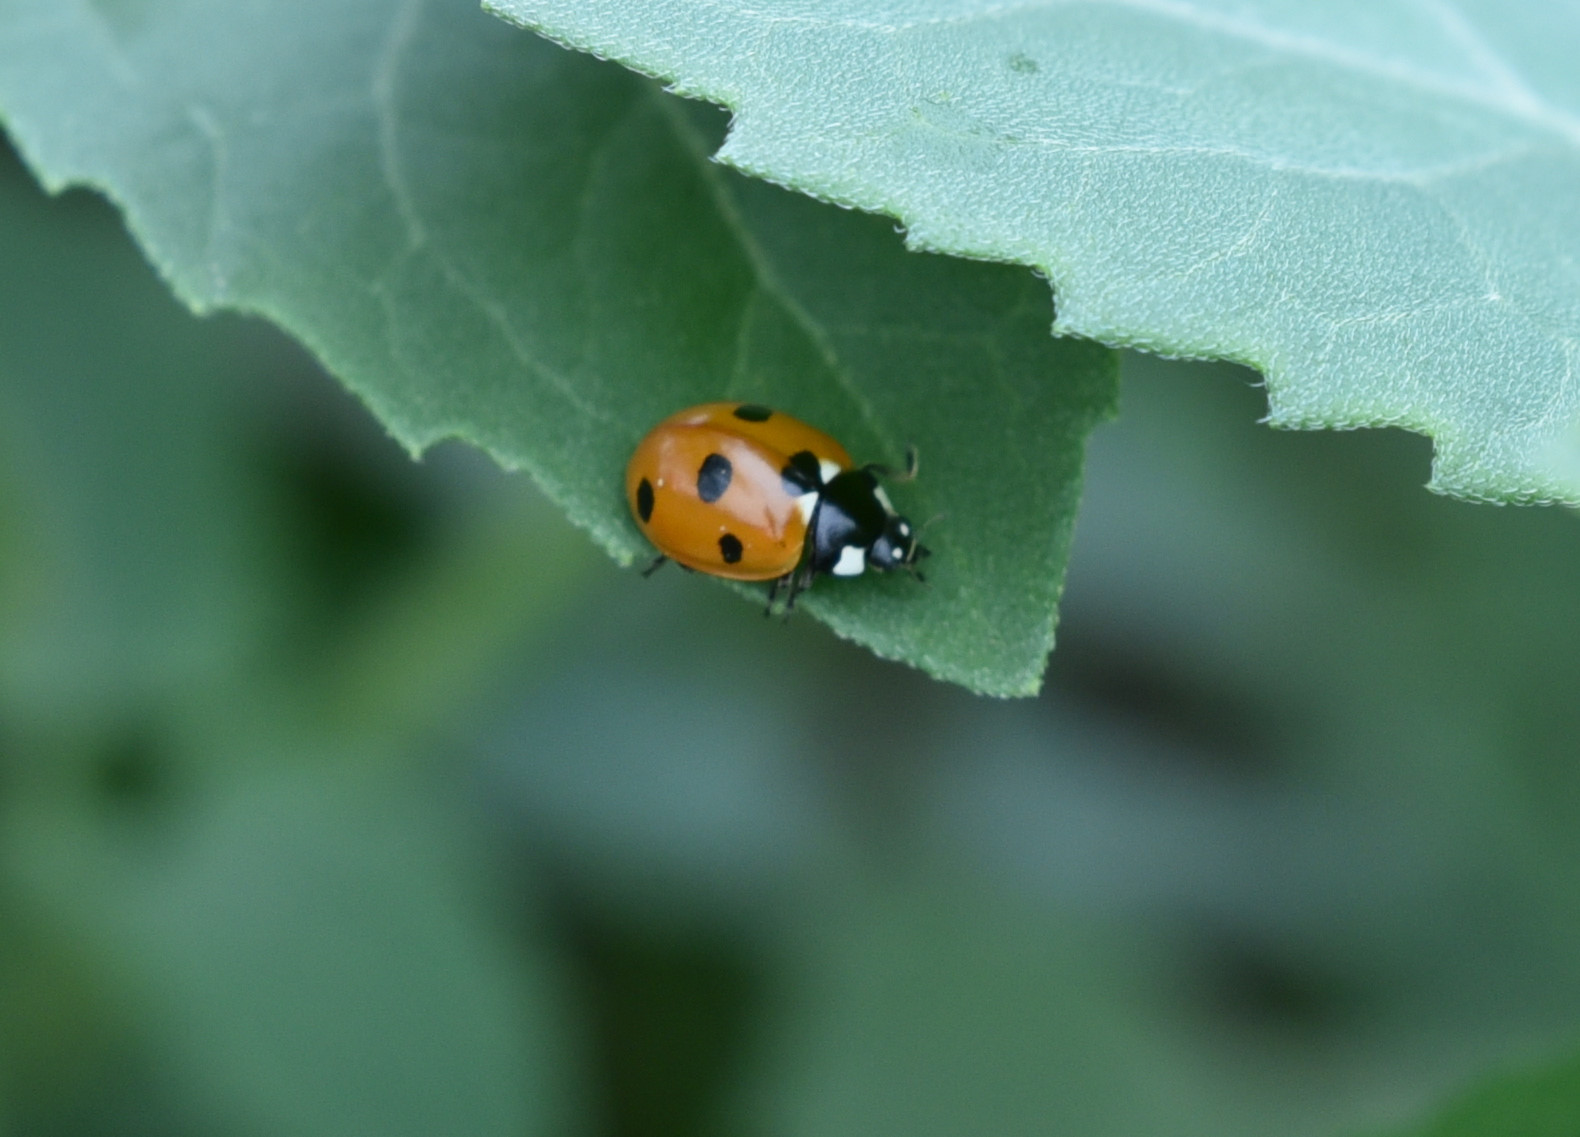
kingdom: Animalia
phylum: Arthropoda
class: Insecta
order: Coleoptera
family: Coccinellidae
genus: Coccinella
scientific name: Coccinella septempunctata
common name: Sevenspotted lady beetle
